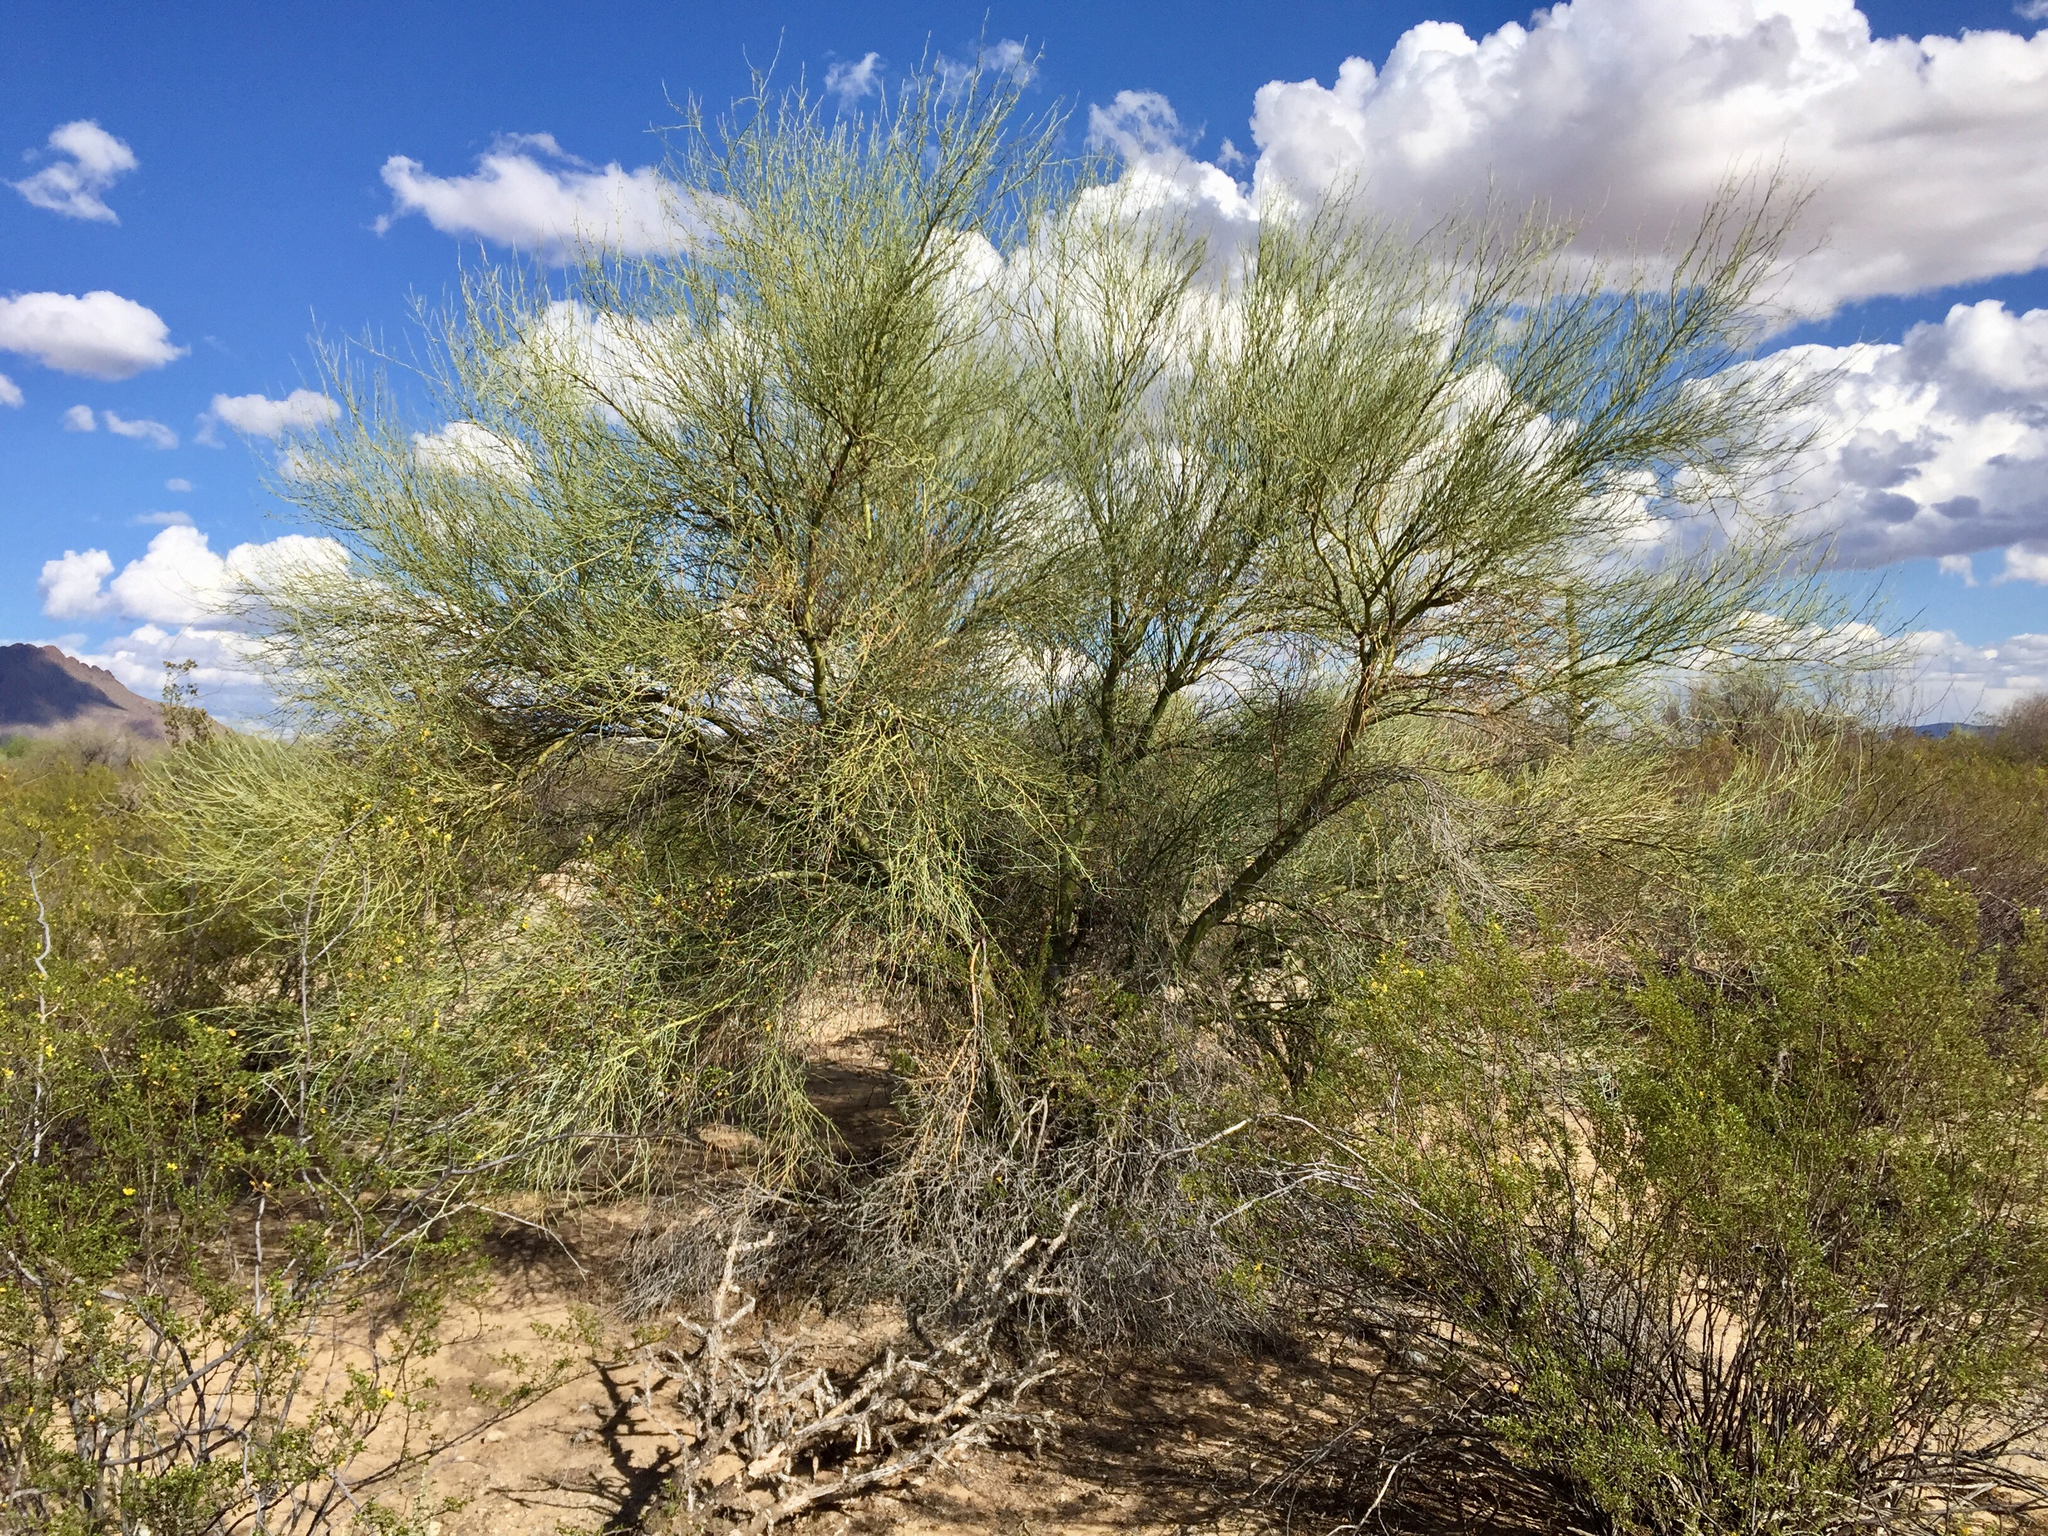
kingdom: Plantae
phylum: Tracheophyta
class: Magnoliopsida
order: Fabales
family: Fabaceae
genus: Parkinsonia
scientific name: Parkinsonia florida
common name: Blue paloverde
